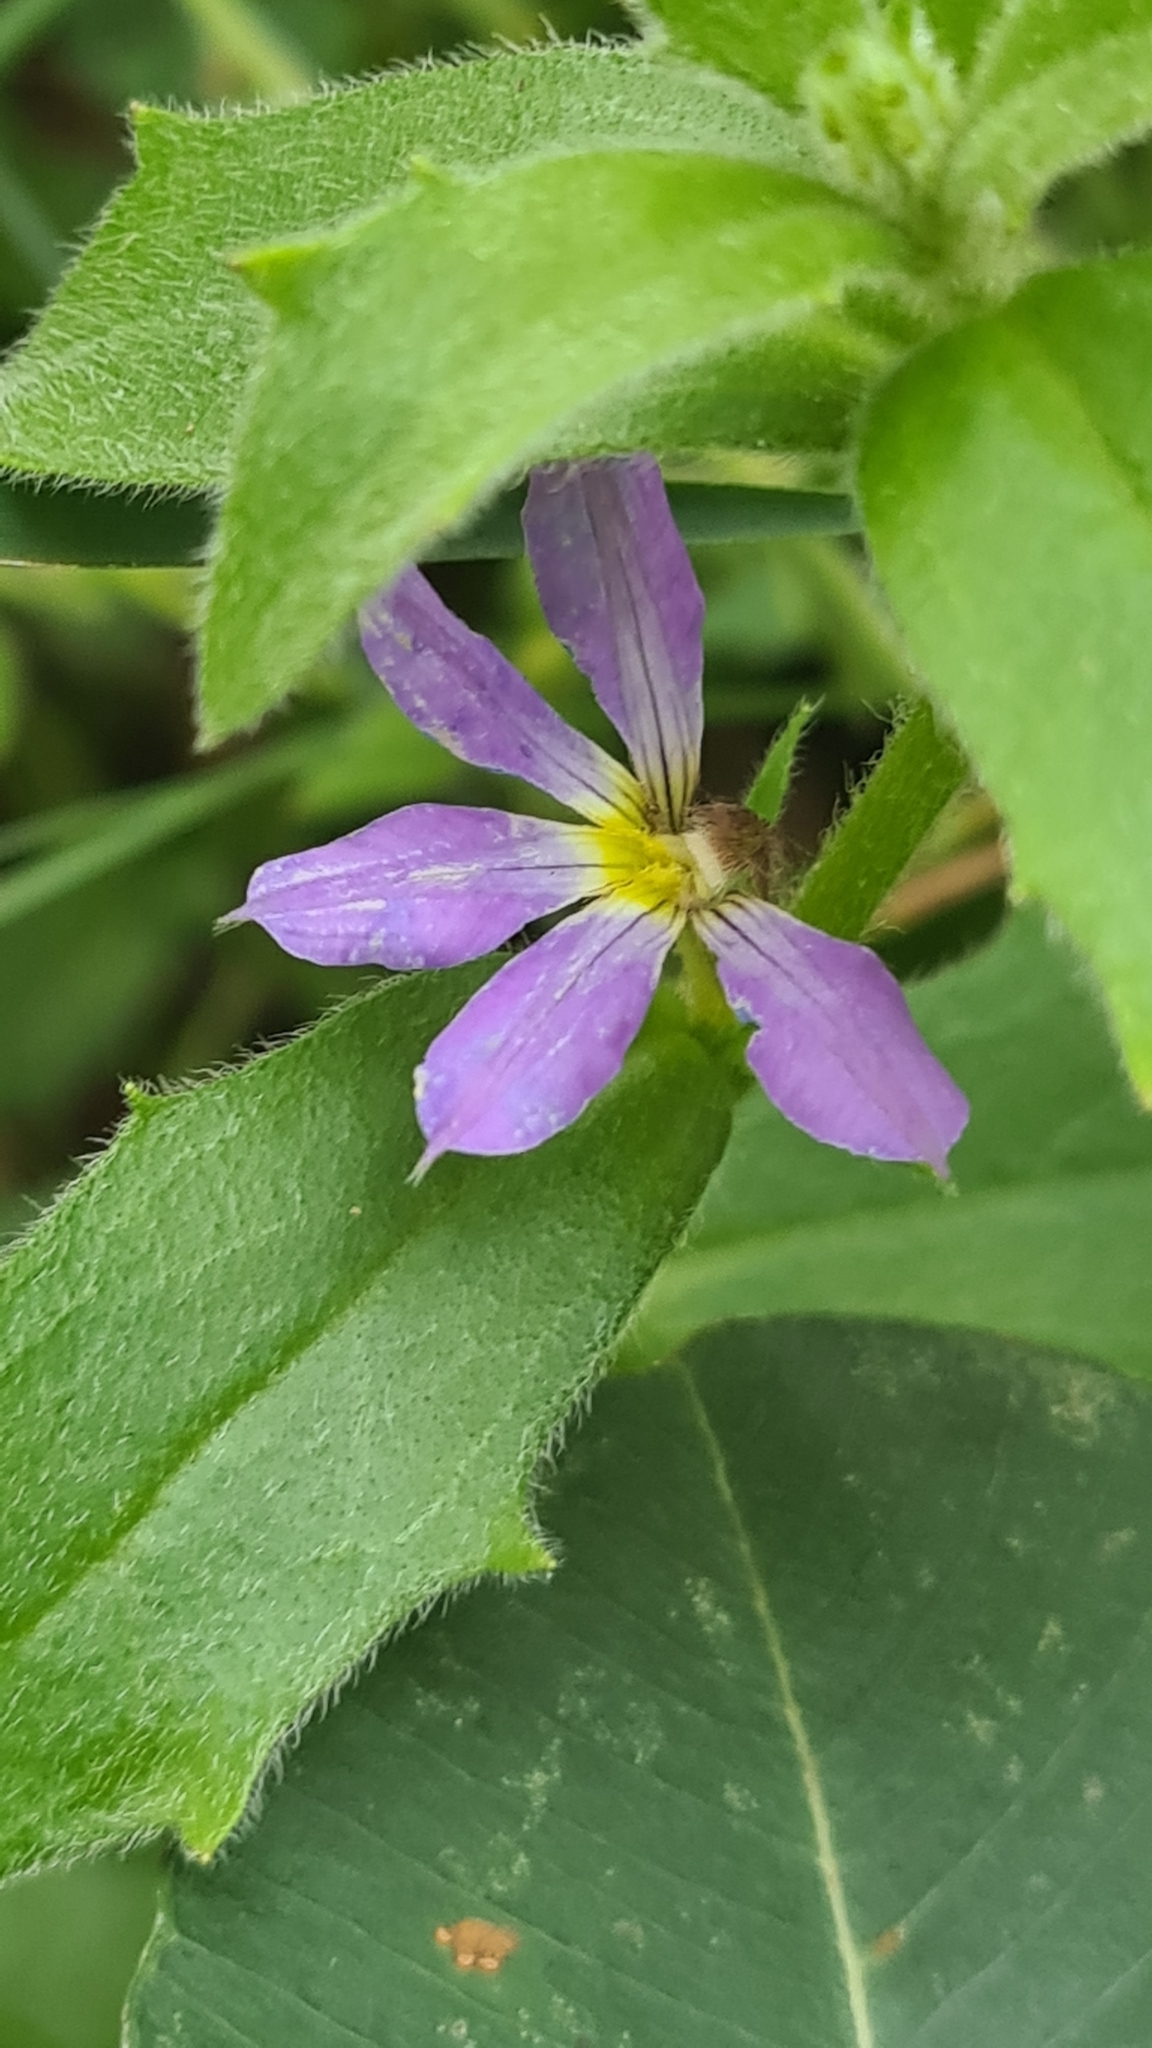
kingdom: Plantae
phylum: Tracheophyta
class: Magnoliopsida
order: Asterales
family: Goodeniaceae
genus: Scaevola
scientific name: Scaevola aemula
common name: Common fanflower
